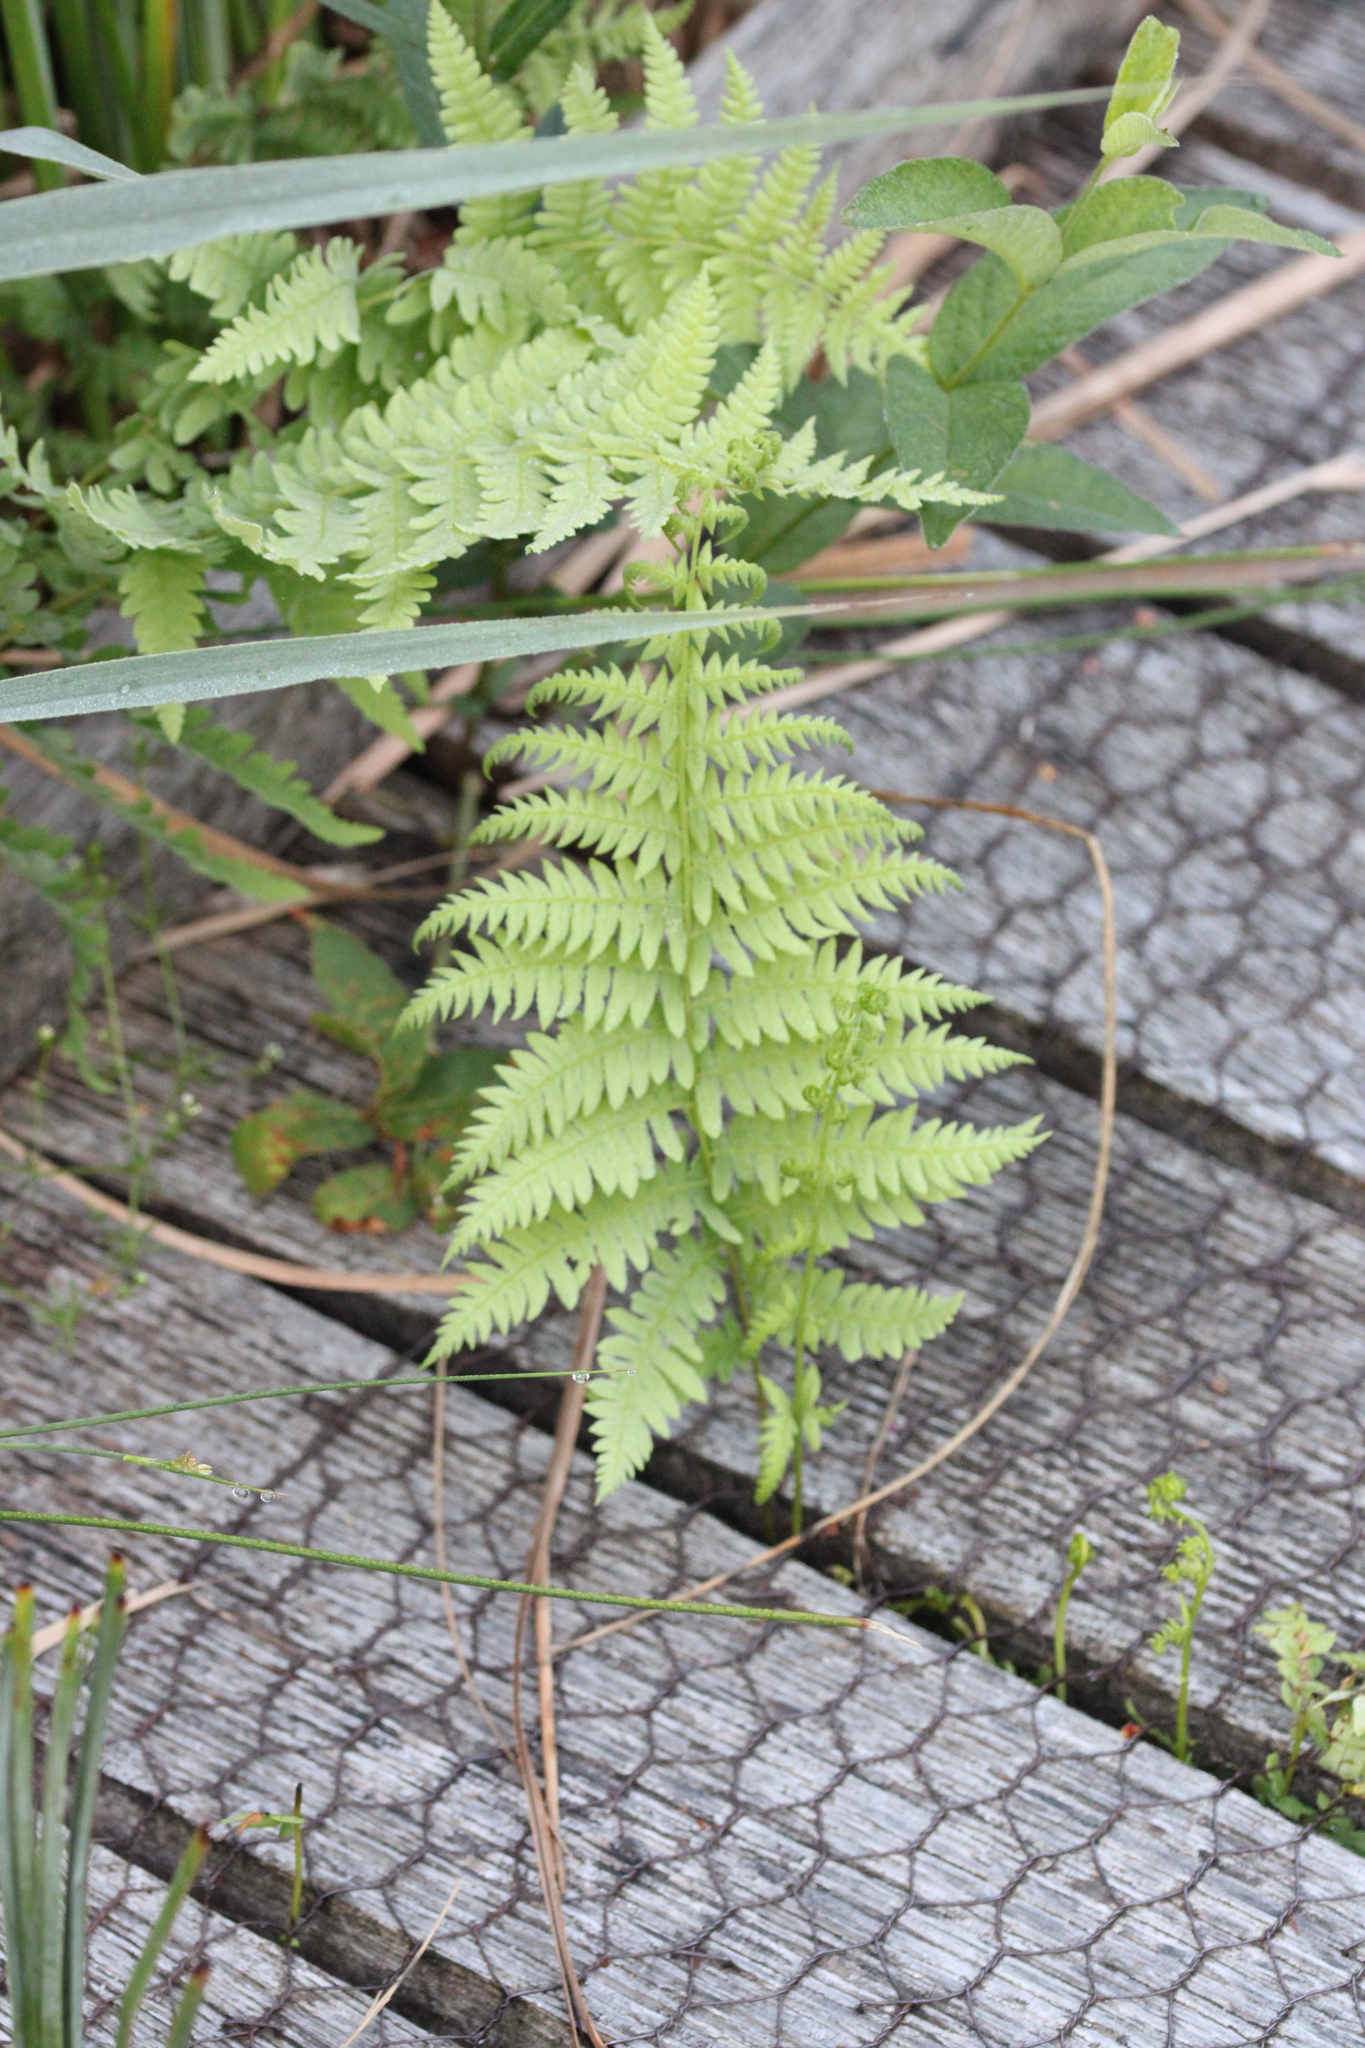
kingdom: Plantae
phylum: Tracheophyta
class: Polypodiopsida
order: Polypodiales
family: Thelypteridaceae
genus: Thelypteris
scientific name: Thelypteris palustris
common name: Marsh fern
